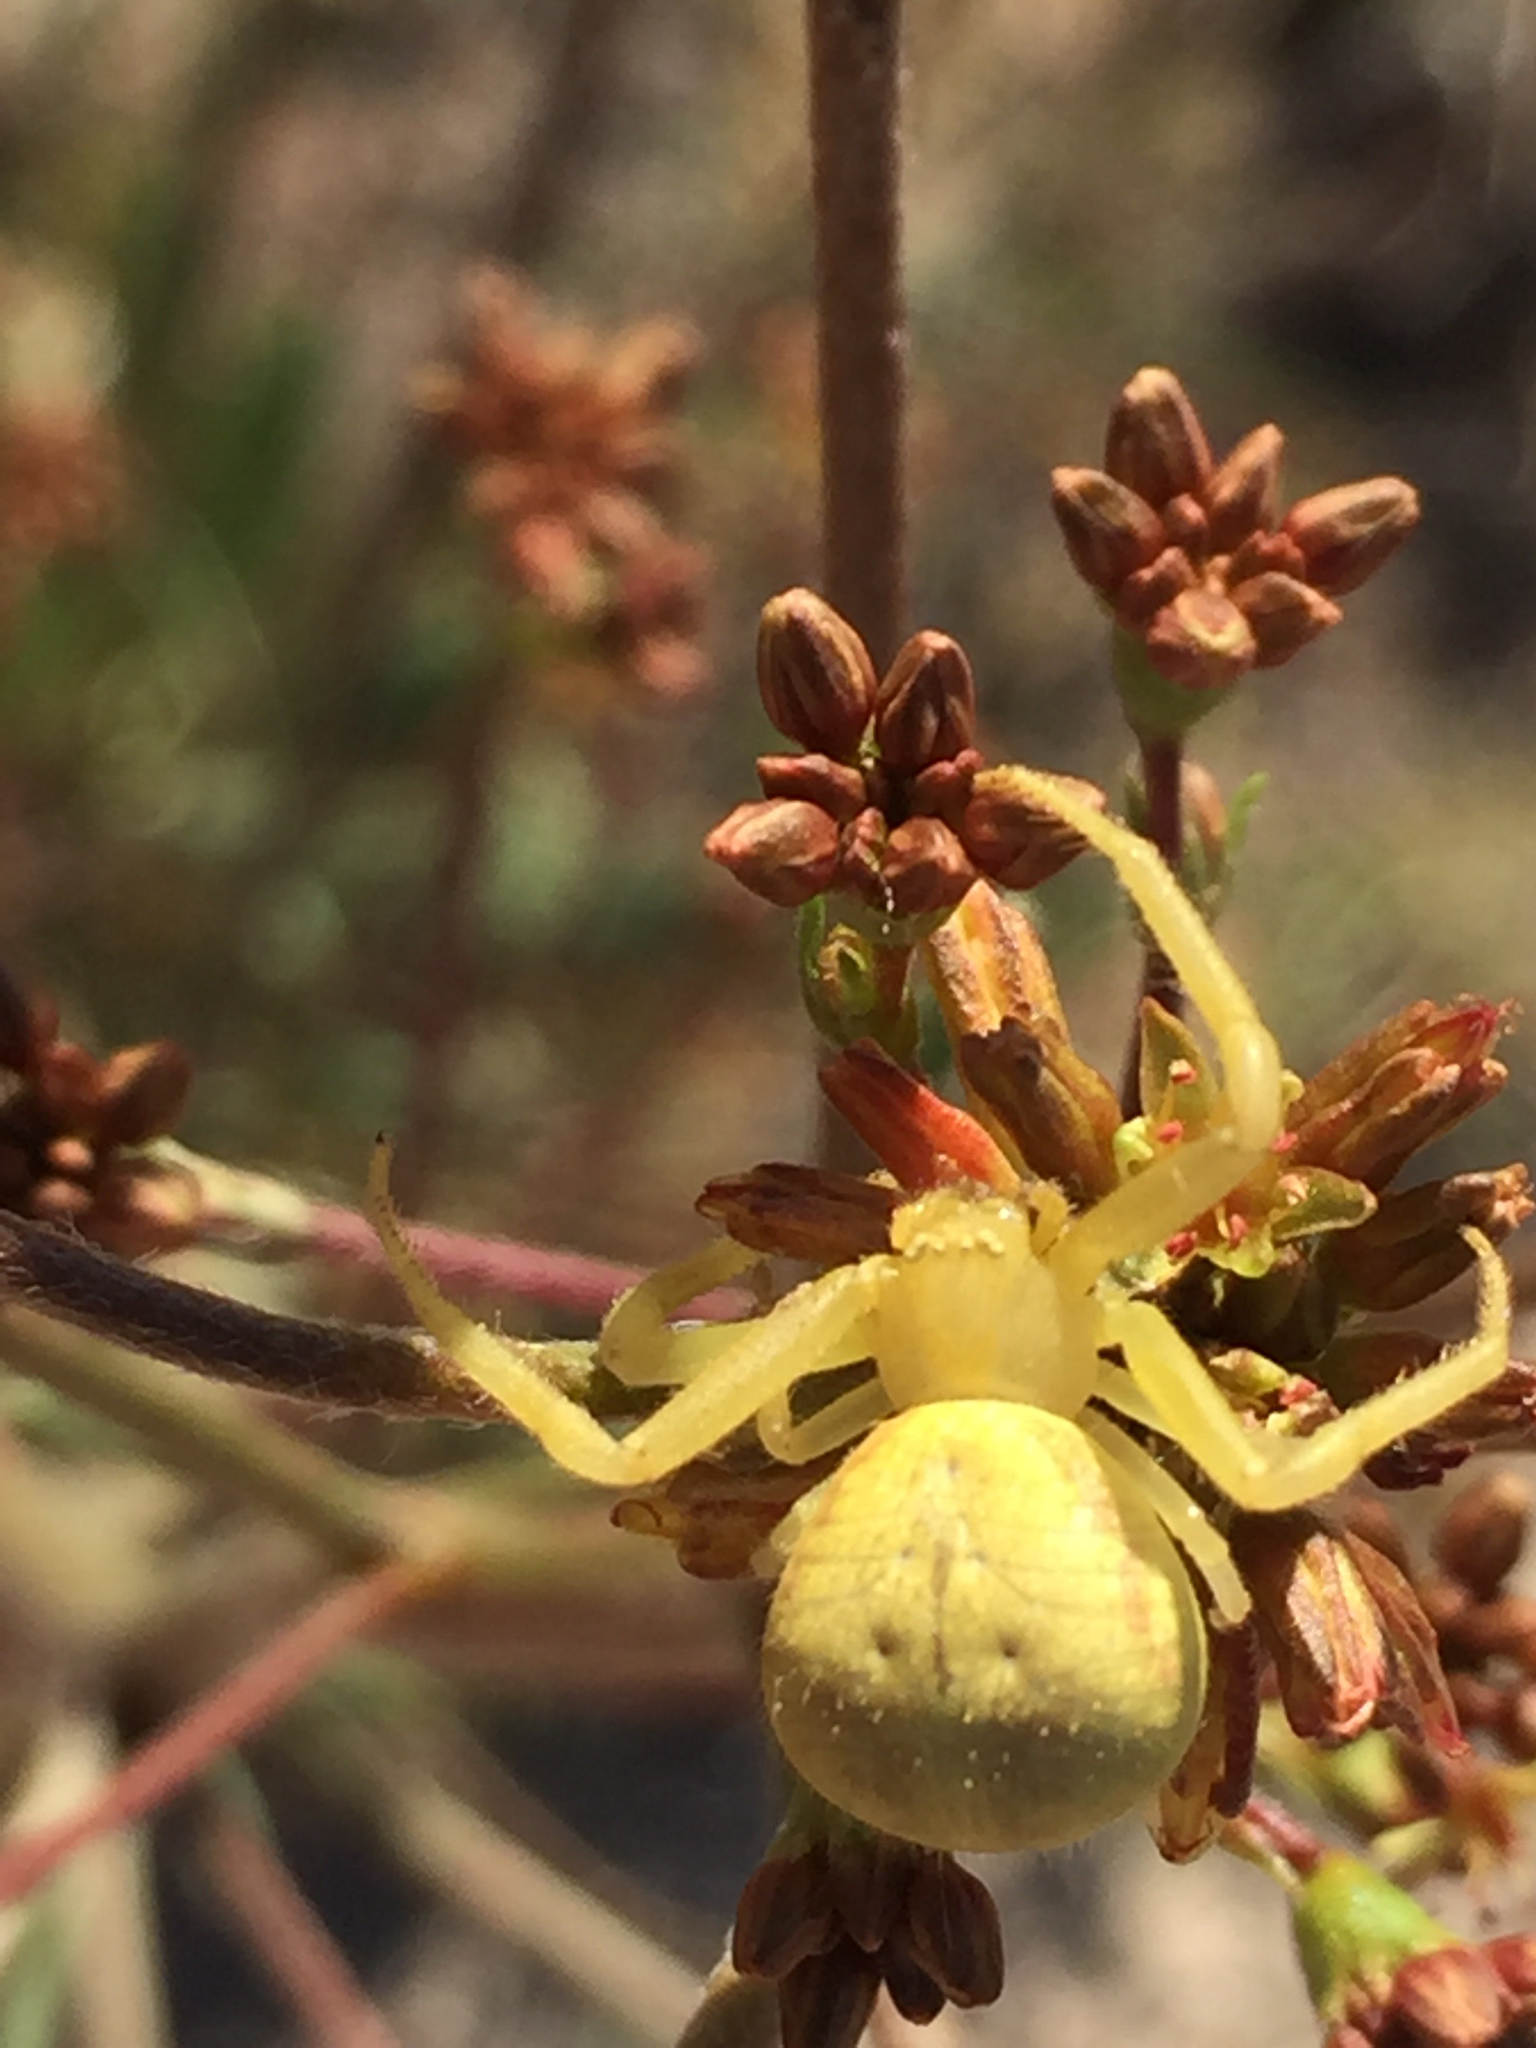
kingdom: Animalia
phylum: Arthropoda
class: Arachnida
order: Araneae
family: Thomisidae
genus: Misumena
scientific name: Misumena vatia
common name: Goldenrod crab spider
